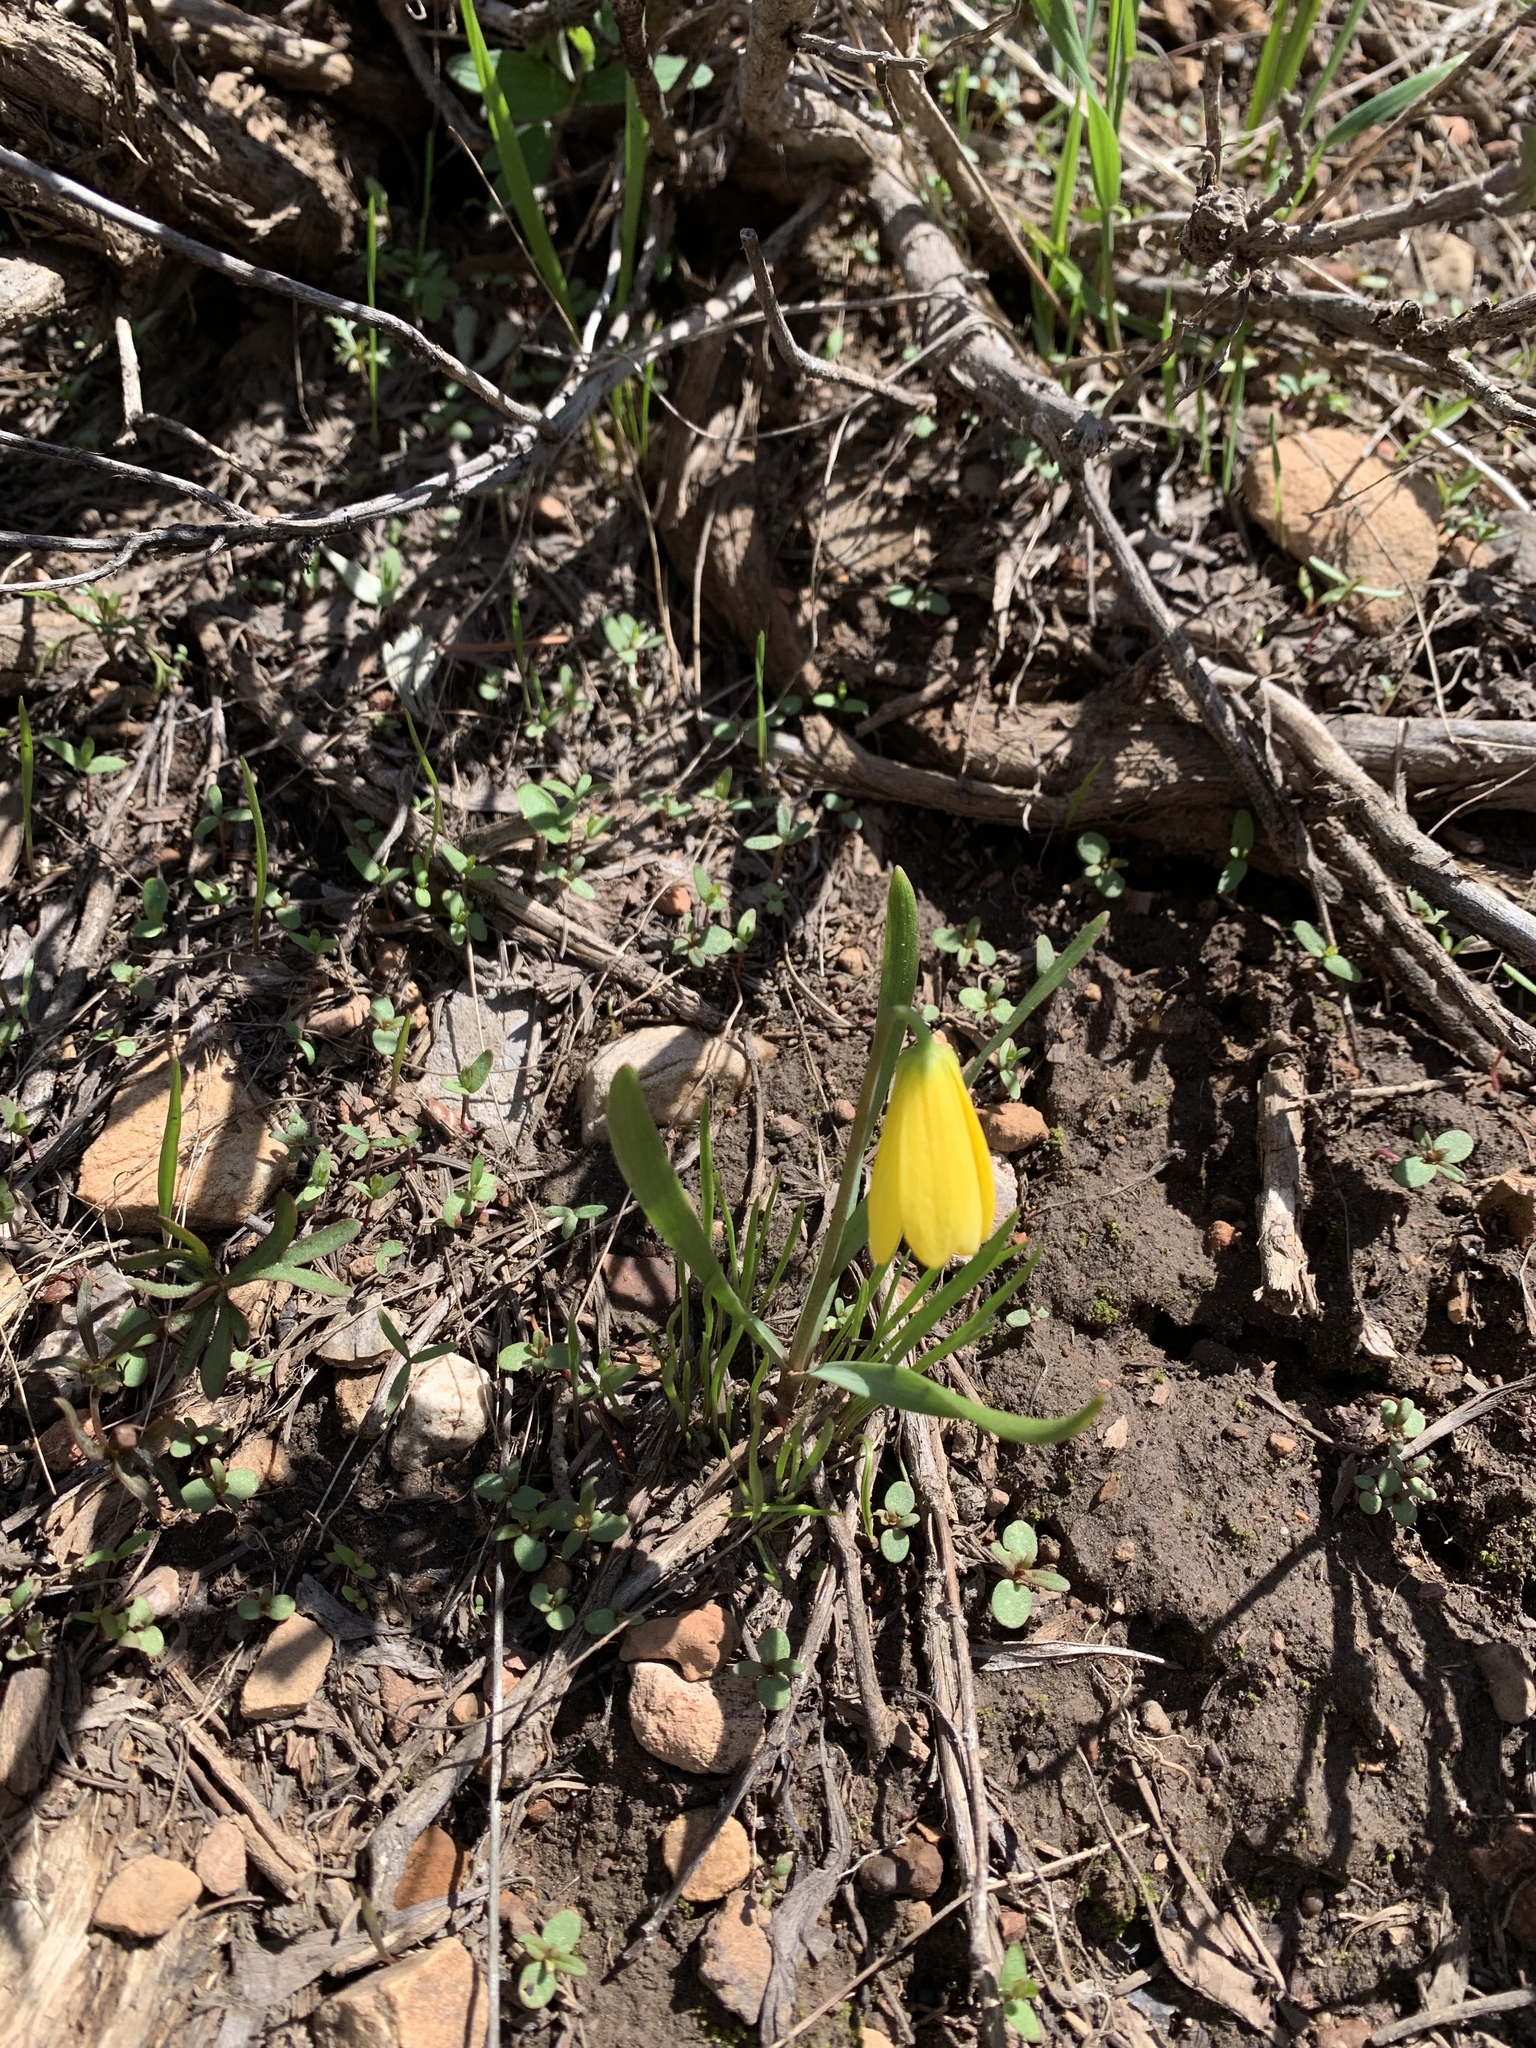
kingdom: Plantae
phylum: Tracheophyta
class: Liliopsida
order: Liliales
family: Liliaceae
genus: Fritillaria
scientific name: Fritillaria pudica
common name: Yellow fritillary
